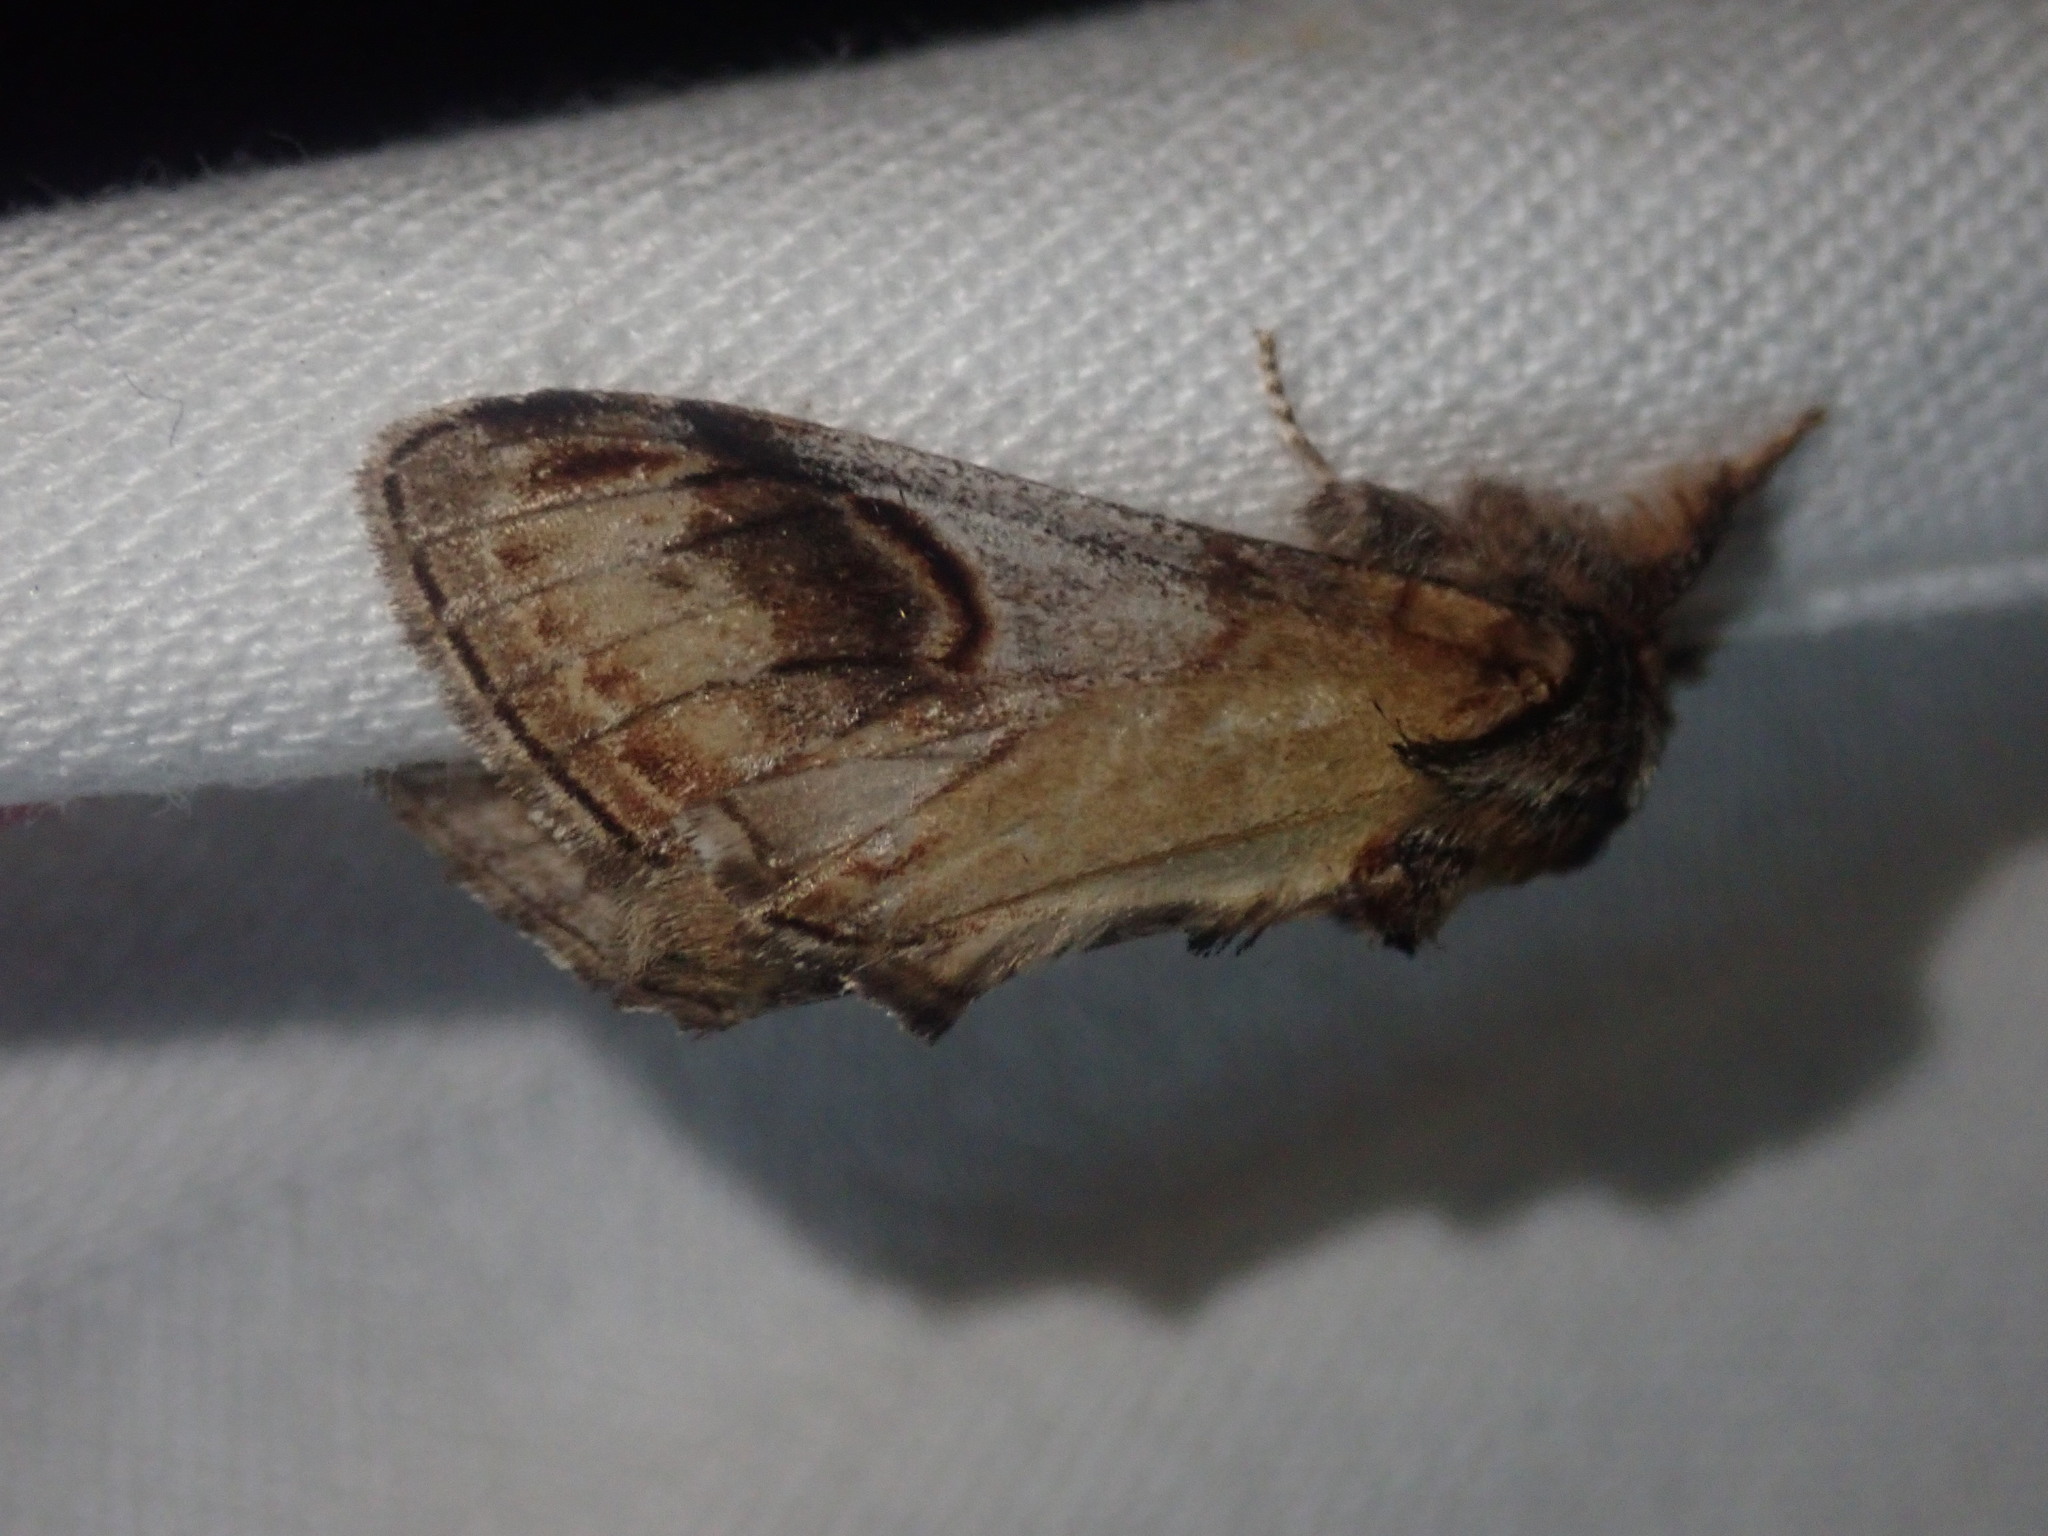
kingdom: Animalia
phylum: Arthropoda
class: Insecta
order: Lepidoptera
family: Notodontidae
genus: Notodonta
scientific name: Notodonta ziczac
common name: Pebble prominent
